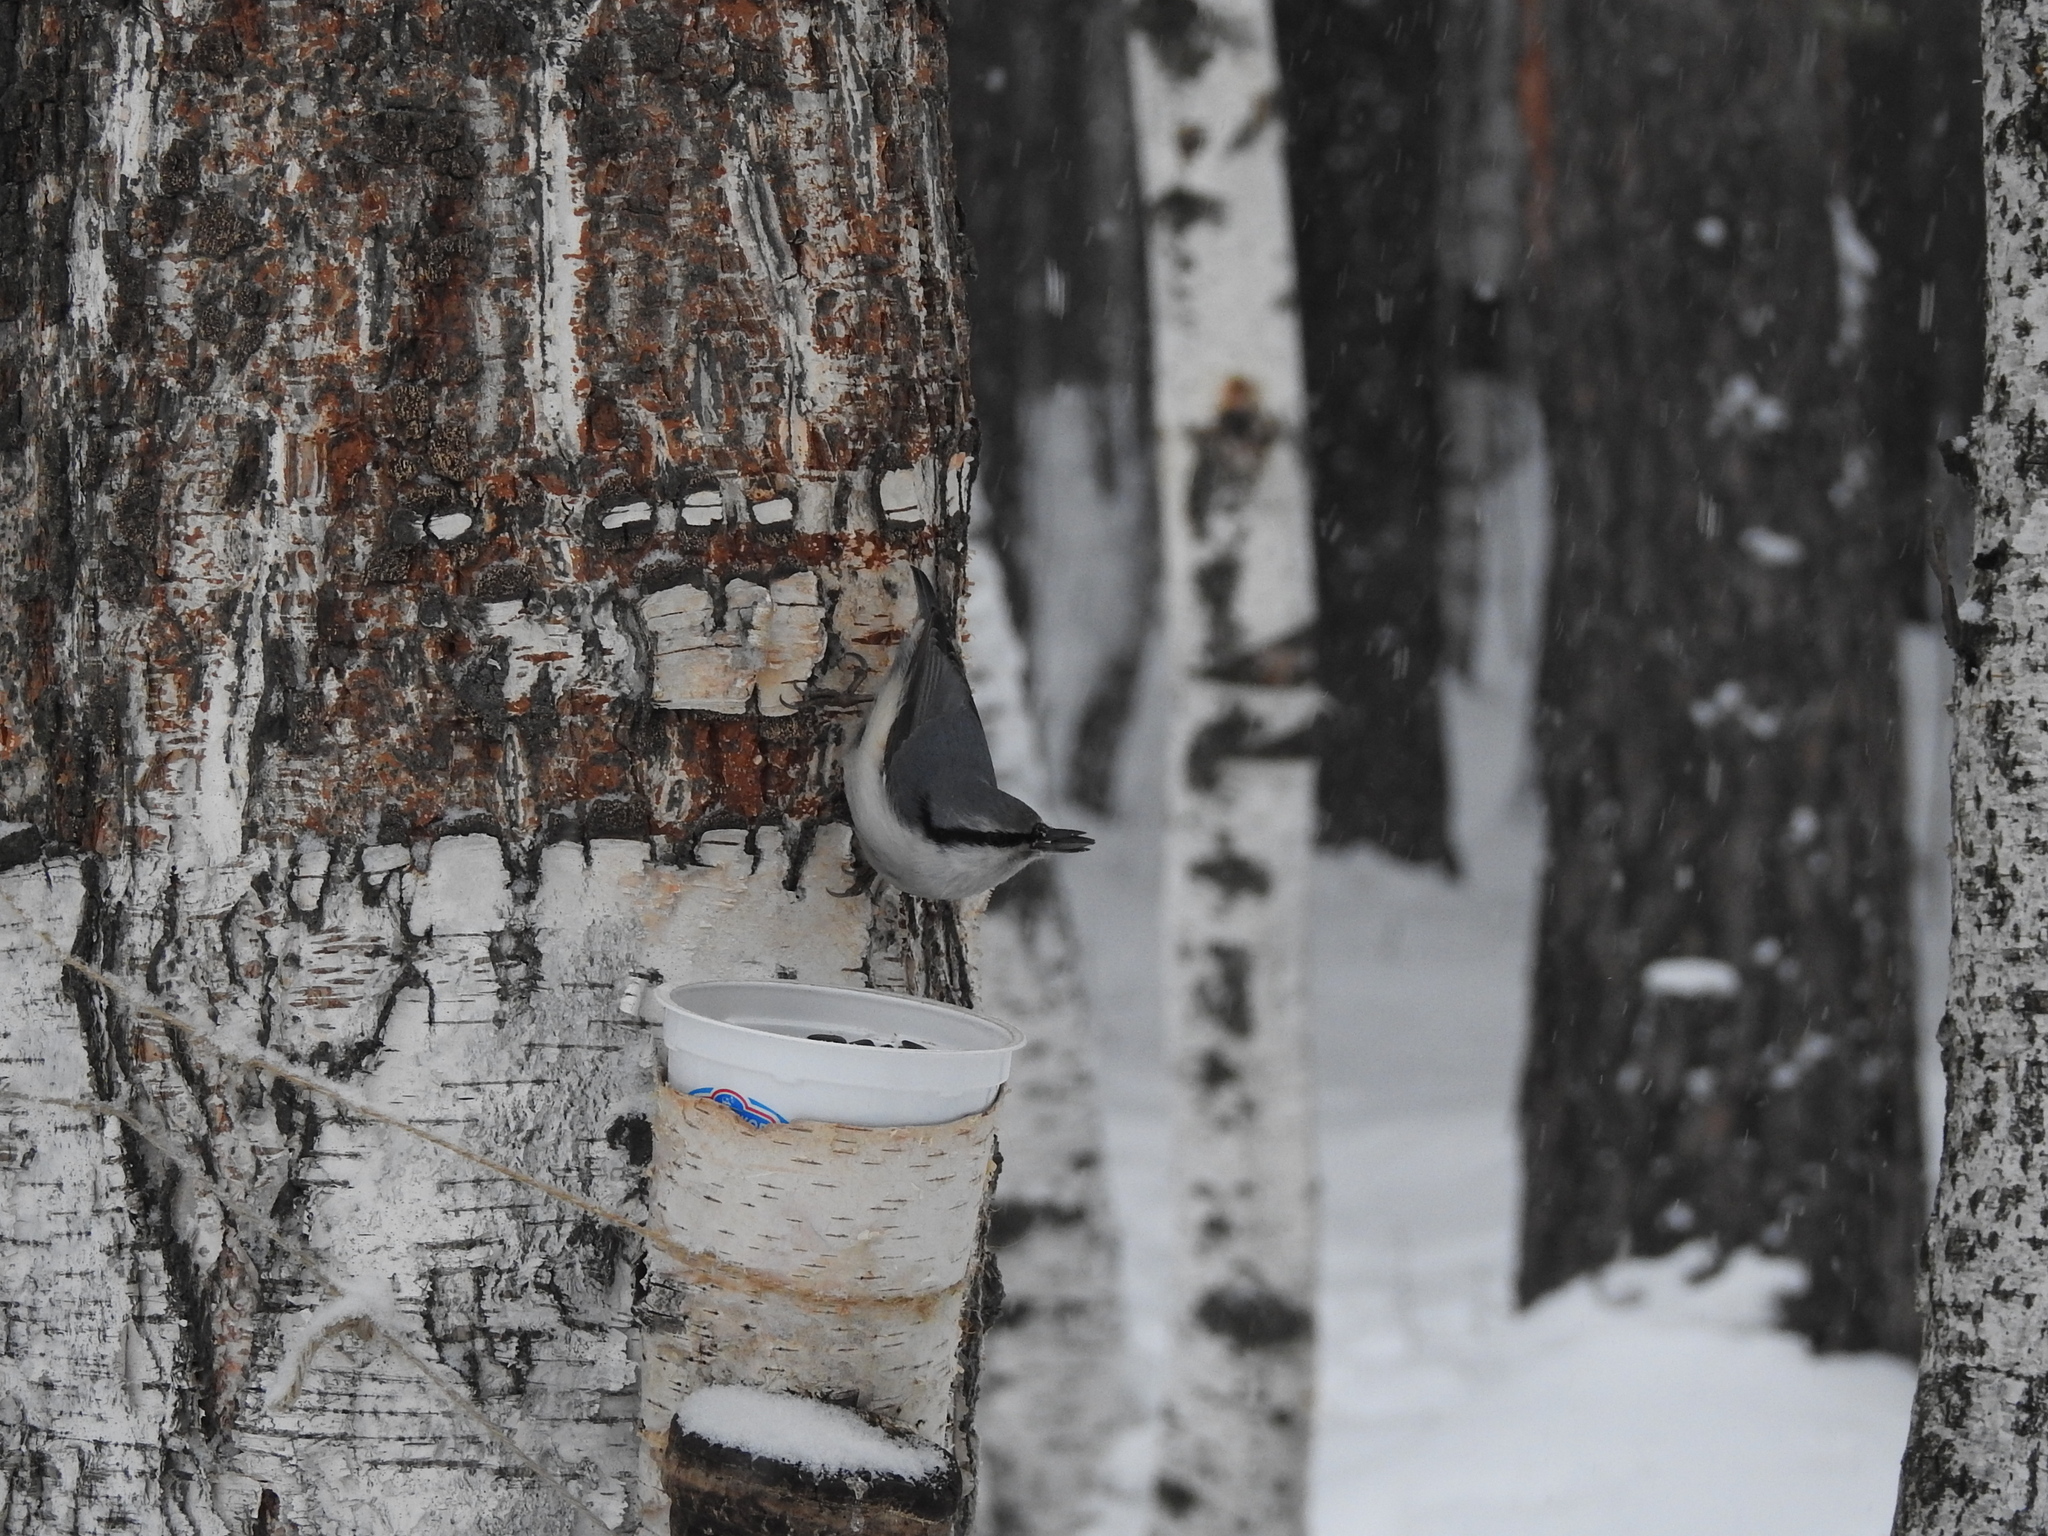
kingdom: Animalia
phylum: Chordata
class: Aves
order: Passeriformes
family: Sittidae
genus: Sitta
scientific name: Sitta europaea
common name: Eurasian nuthatch
